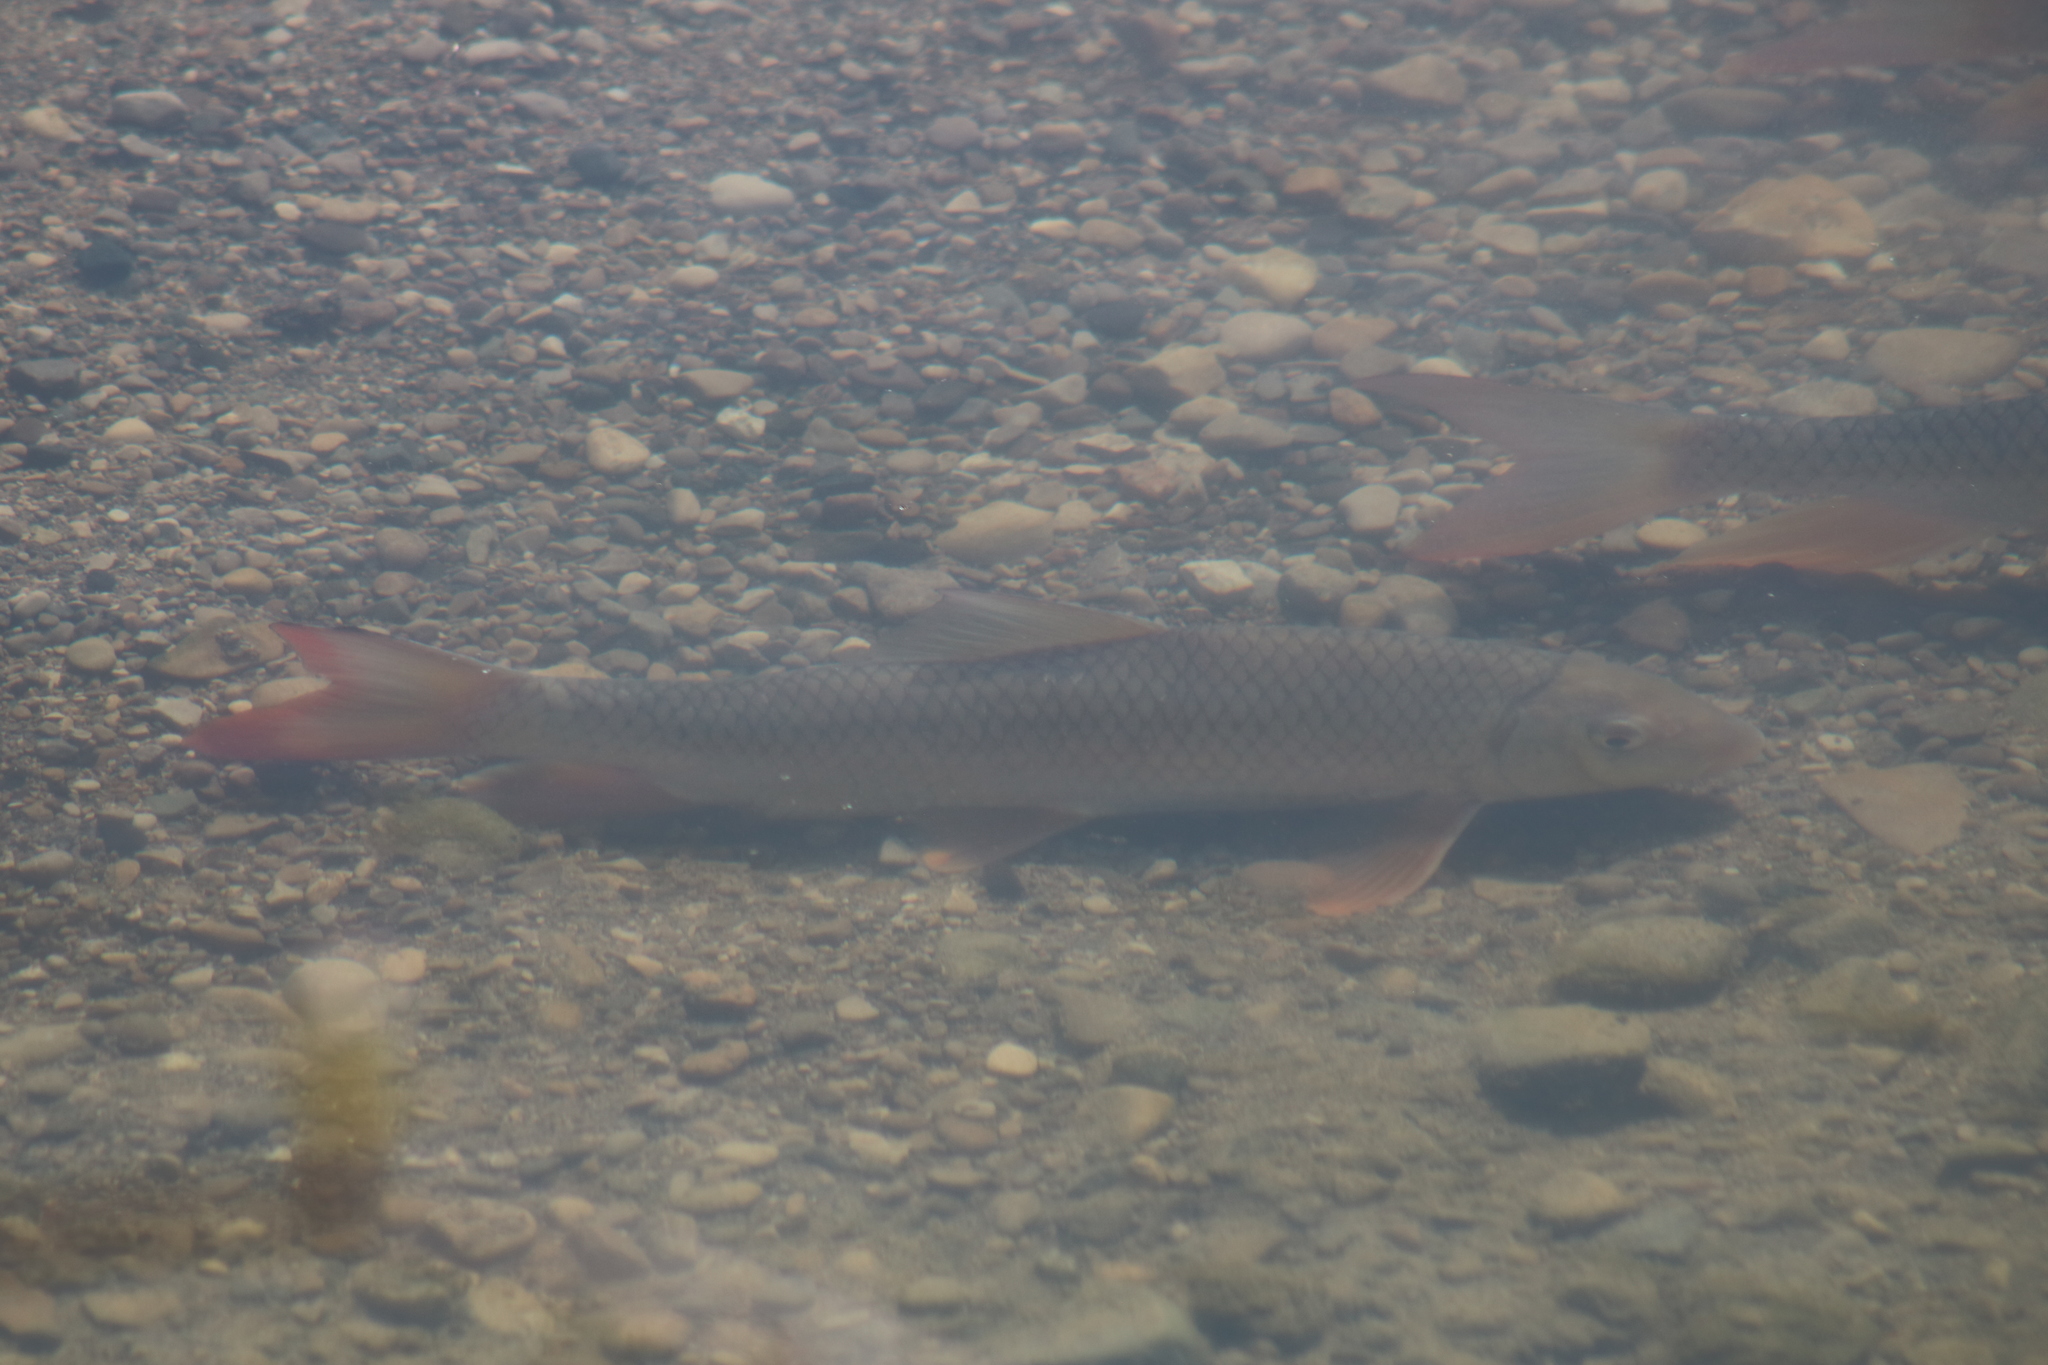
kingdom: Animalia
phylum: Chordata
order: Cypriniformes
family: Catostomidae
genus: Moxostoma
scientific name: Moxostoma macrolepidotum
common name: Shorthead redhorse
